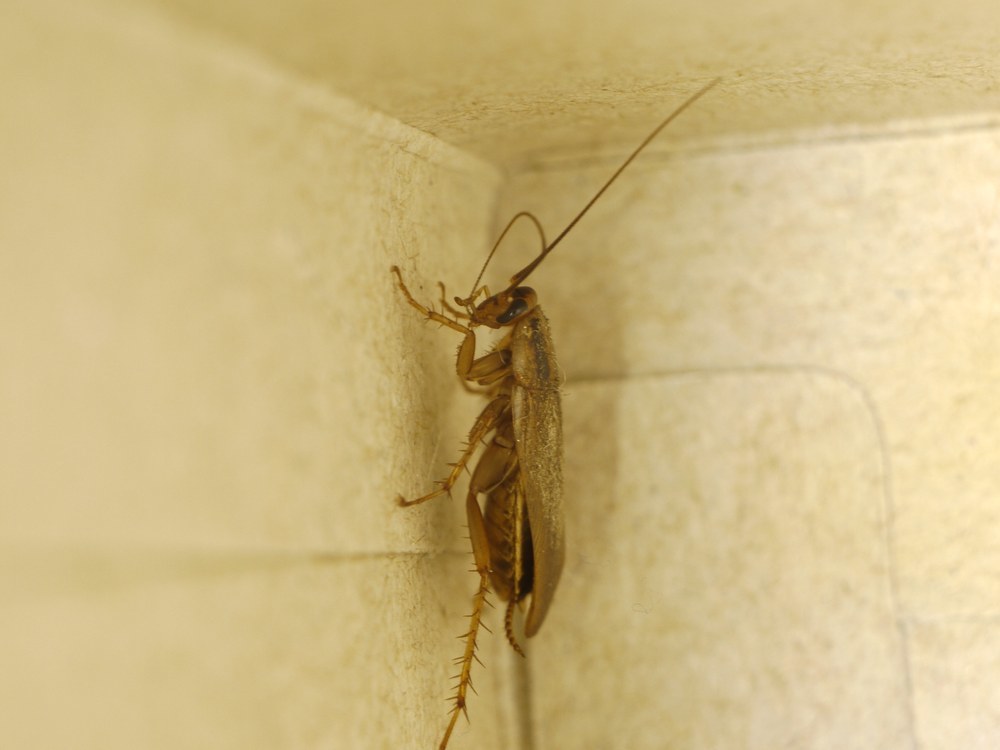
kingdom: Animalia
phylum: Arthropoda
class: Insecta
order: Blattodea
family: Ectobiidae
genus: Blattella
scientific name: Blattella germanica
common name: German cockroach
